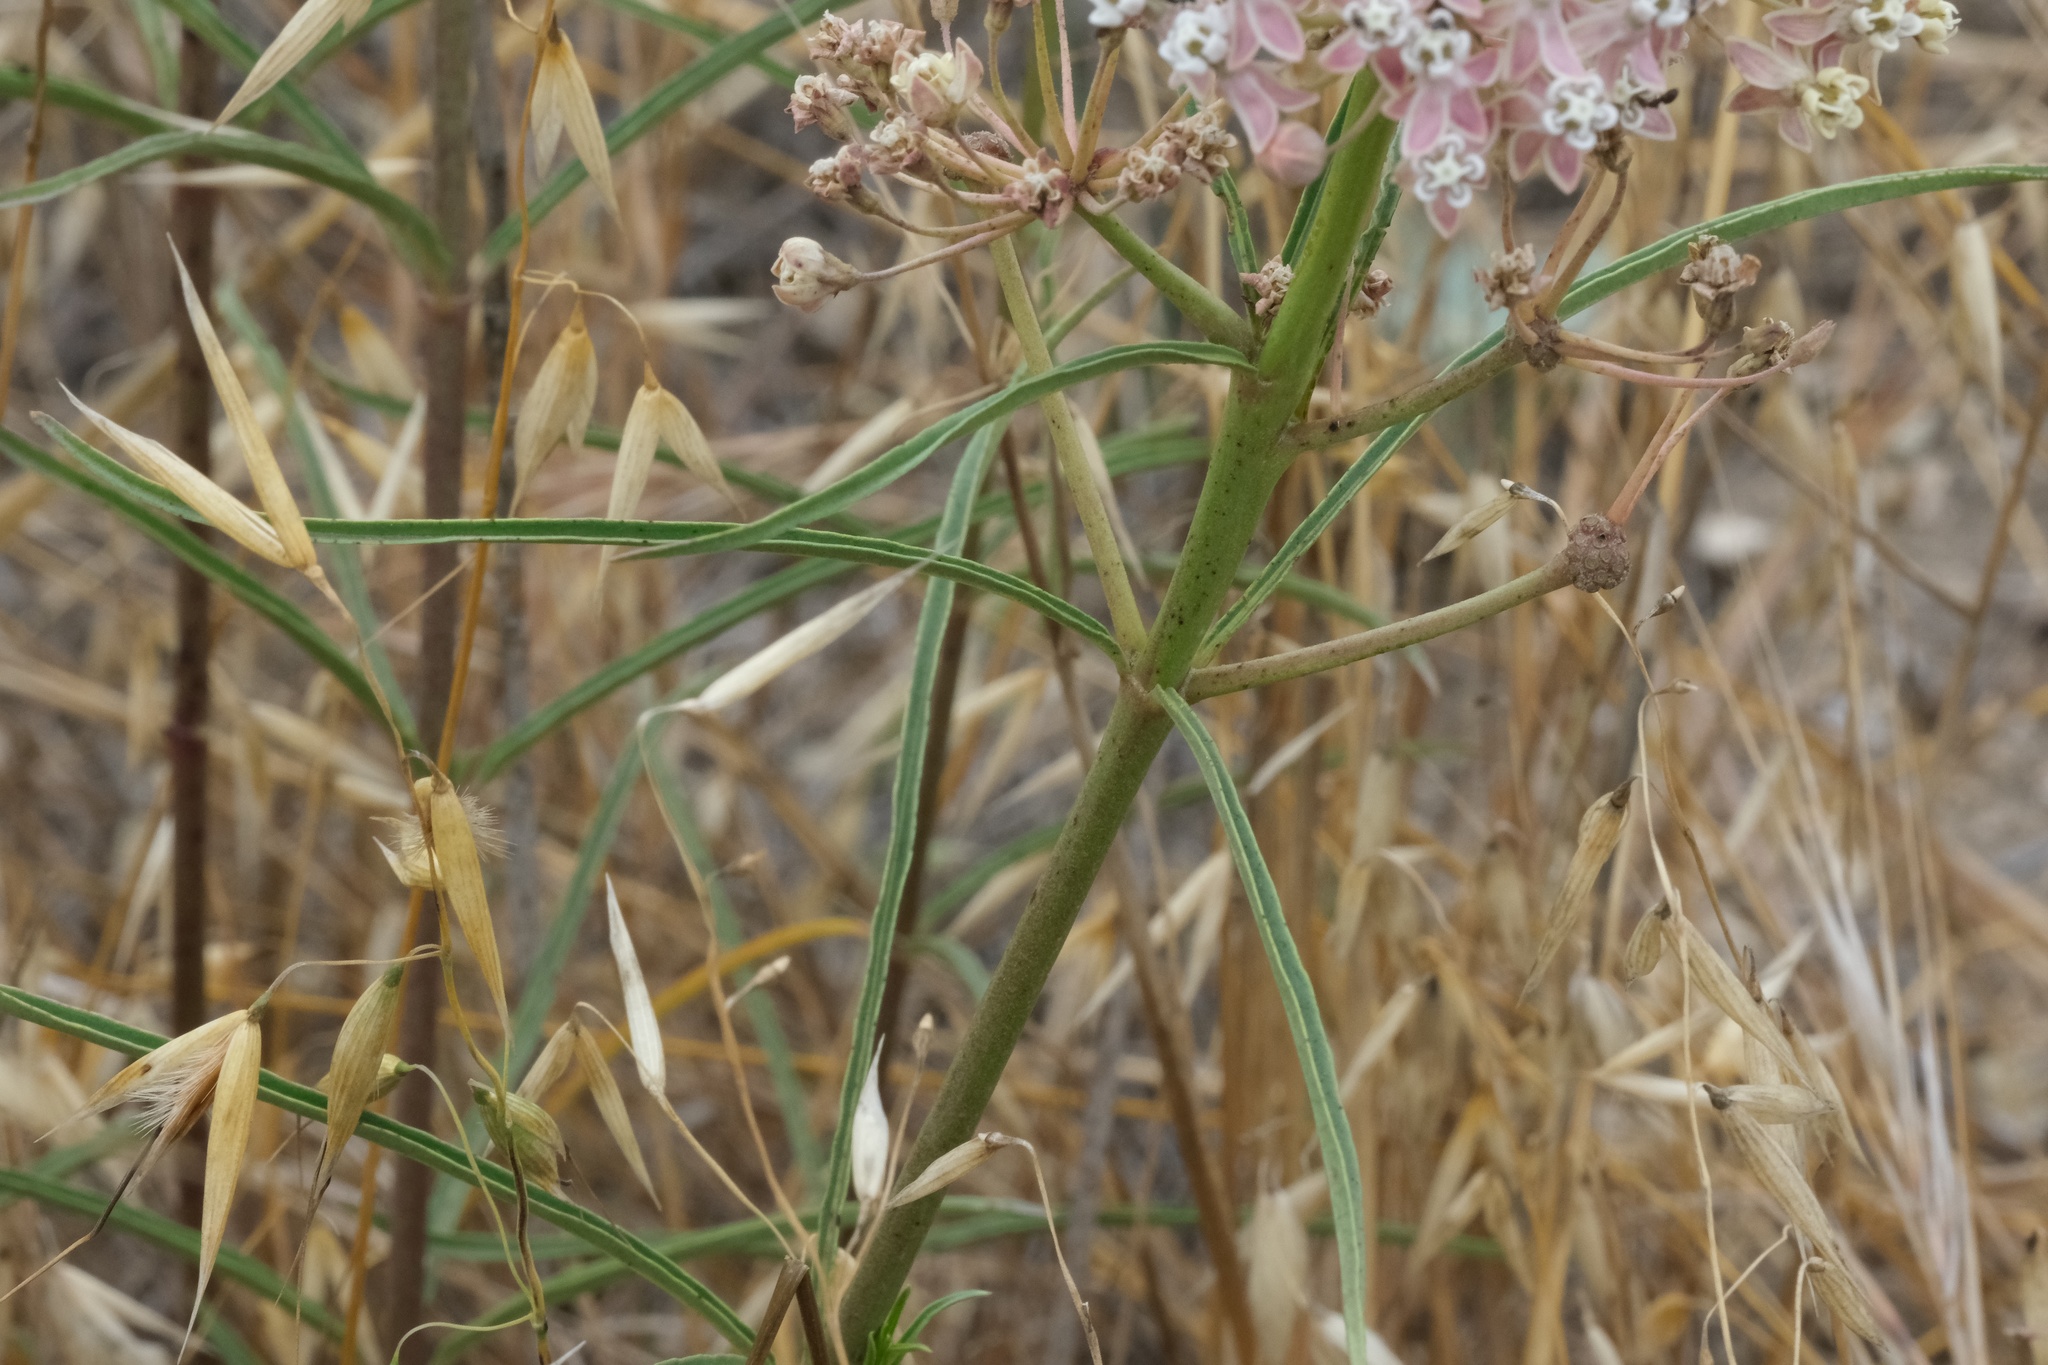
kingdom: Plantae
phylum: Tracheophyta
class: Magnoliopsida
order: Gentianales
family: Apocynaceae
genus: Asclepias
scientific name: Asclepias fascicularis
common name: Mexican milkweed
